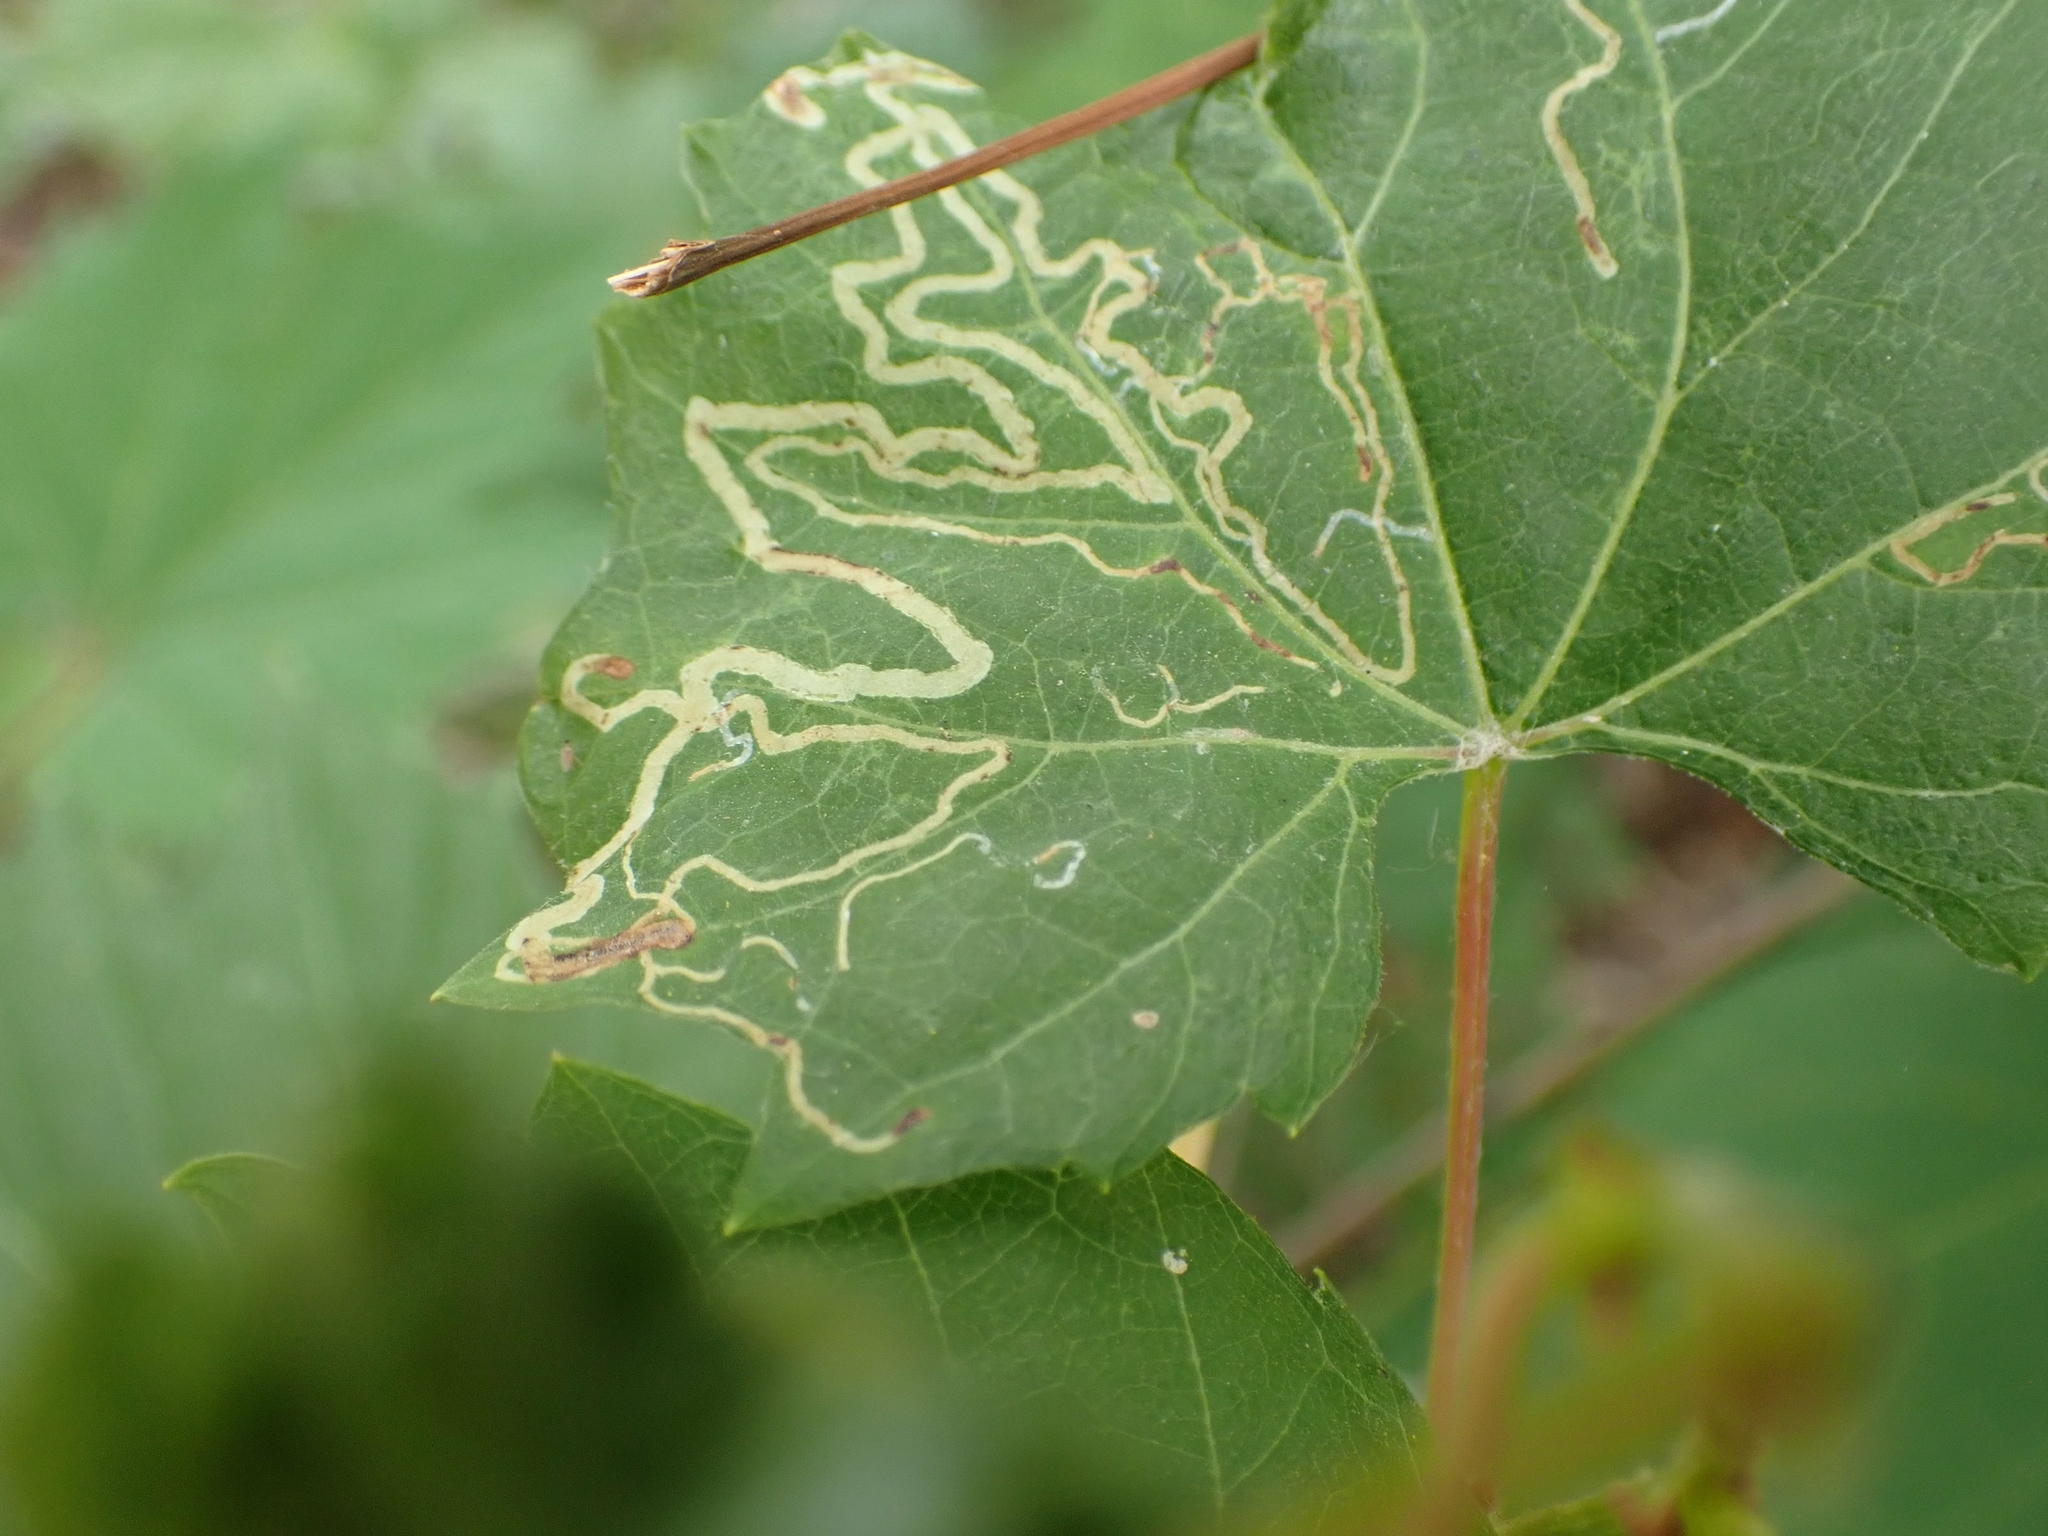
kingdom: Animalia
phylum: Arthropoda
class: Insecta
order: Lepidoptera
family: Gracillariidae
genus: Phyllocnistis
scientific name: Phyllocnistis vitifoliella
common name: Grape leaf-miner moth
